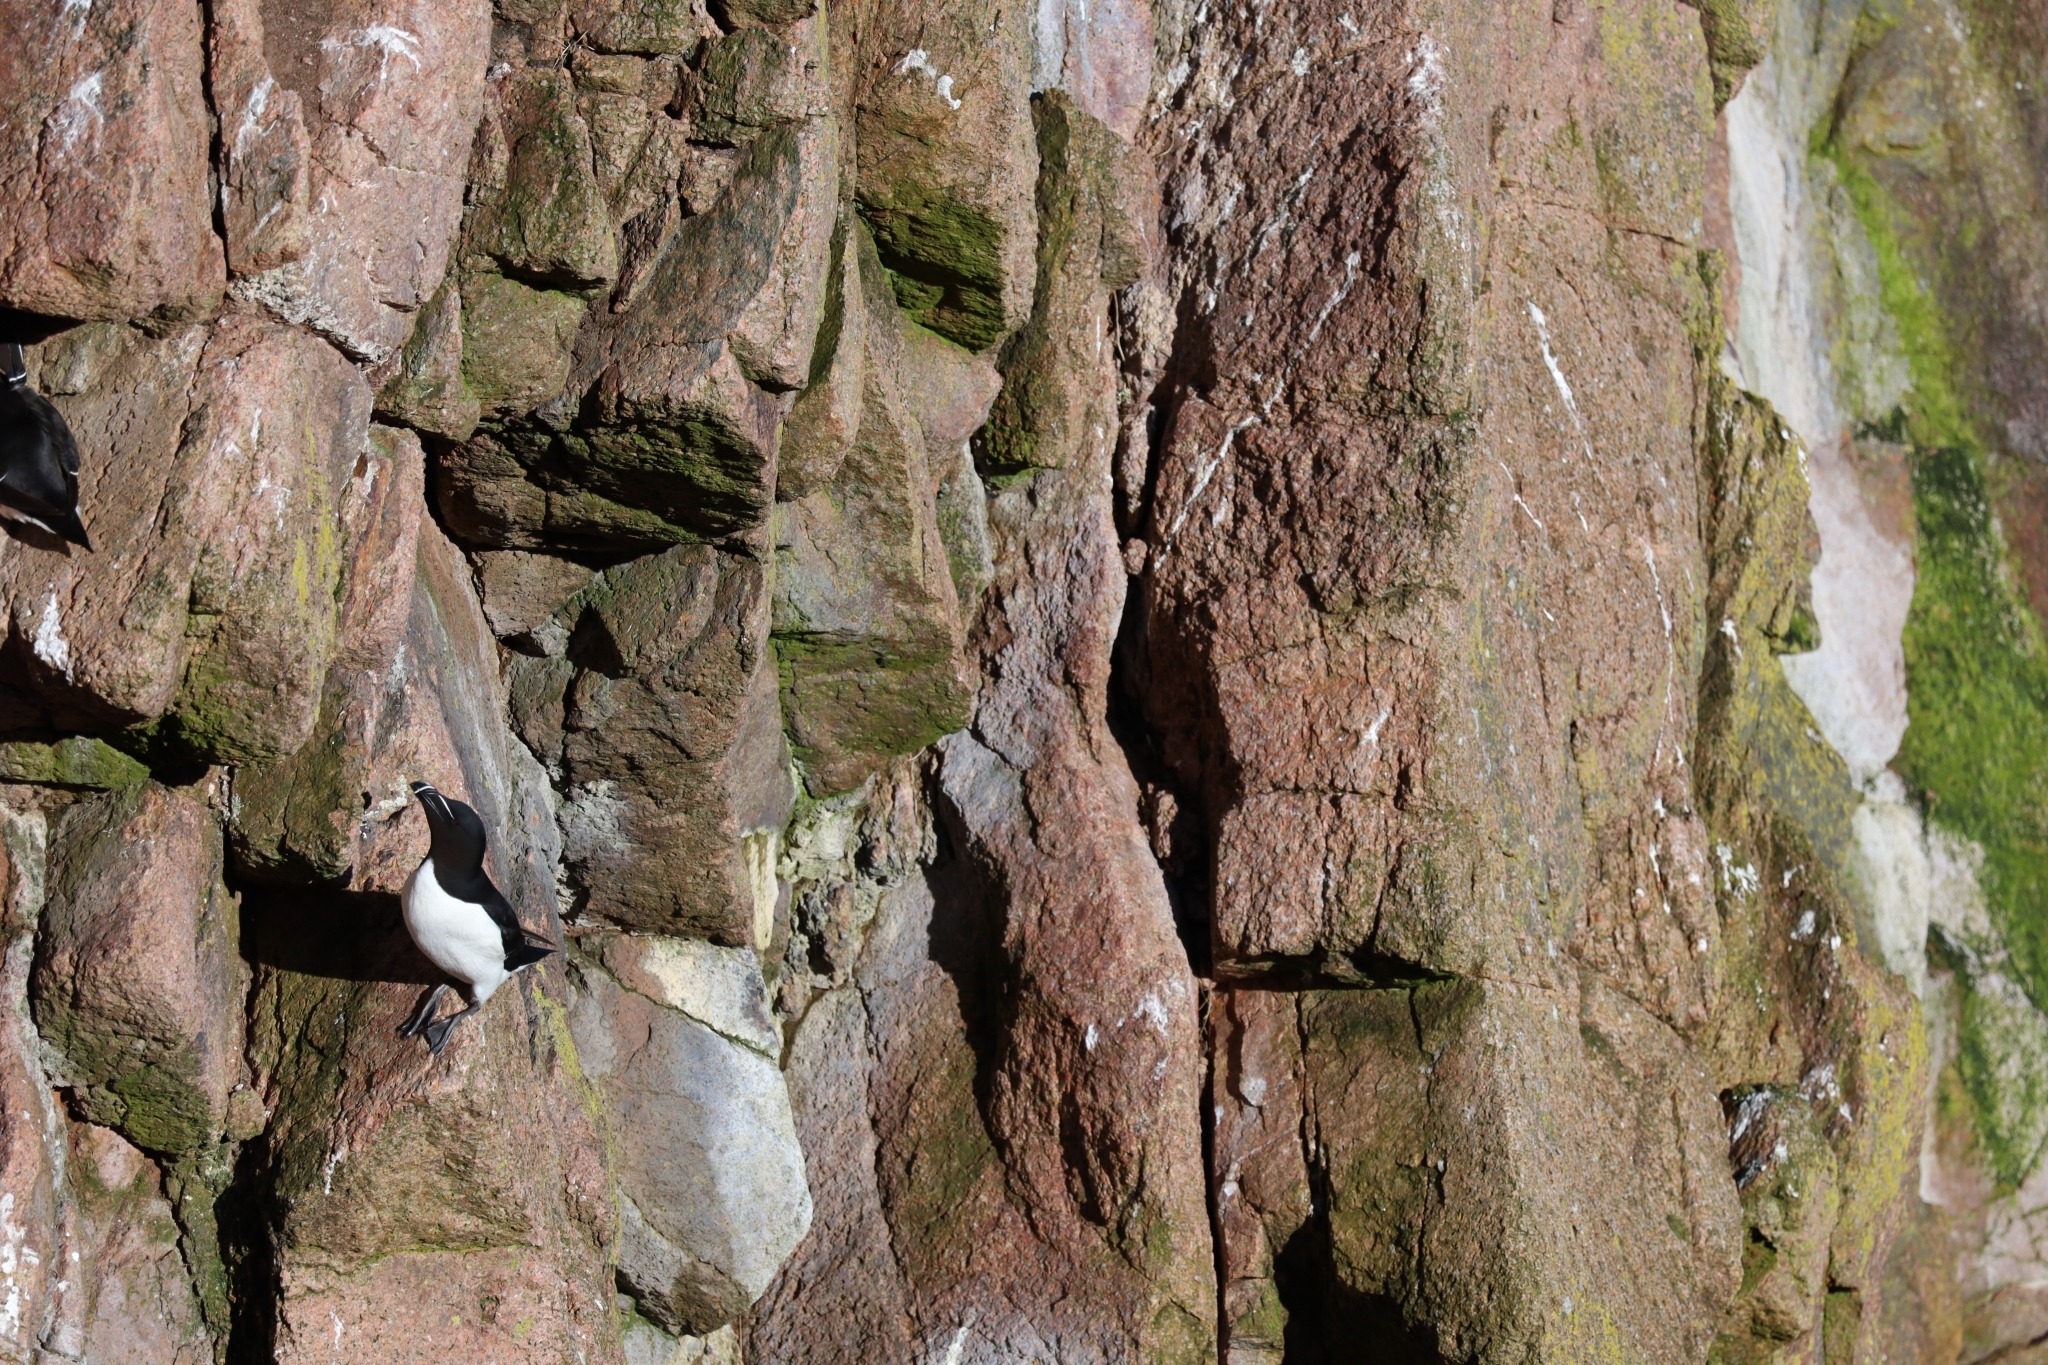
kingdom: Animalia
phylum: Chordata
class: Aves
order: Charadriiformes
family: Alcidae
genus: Alca
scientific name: Alca torda
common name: Razorbill
